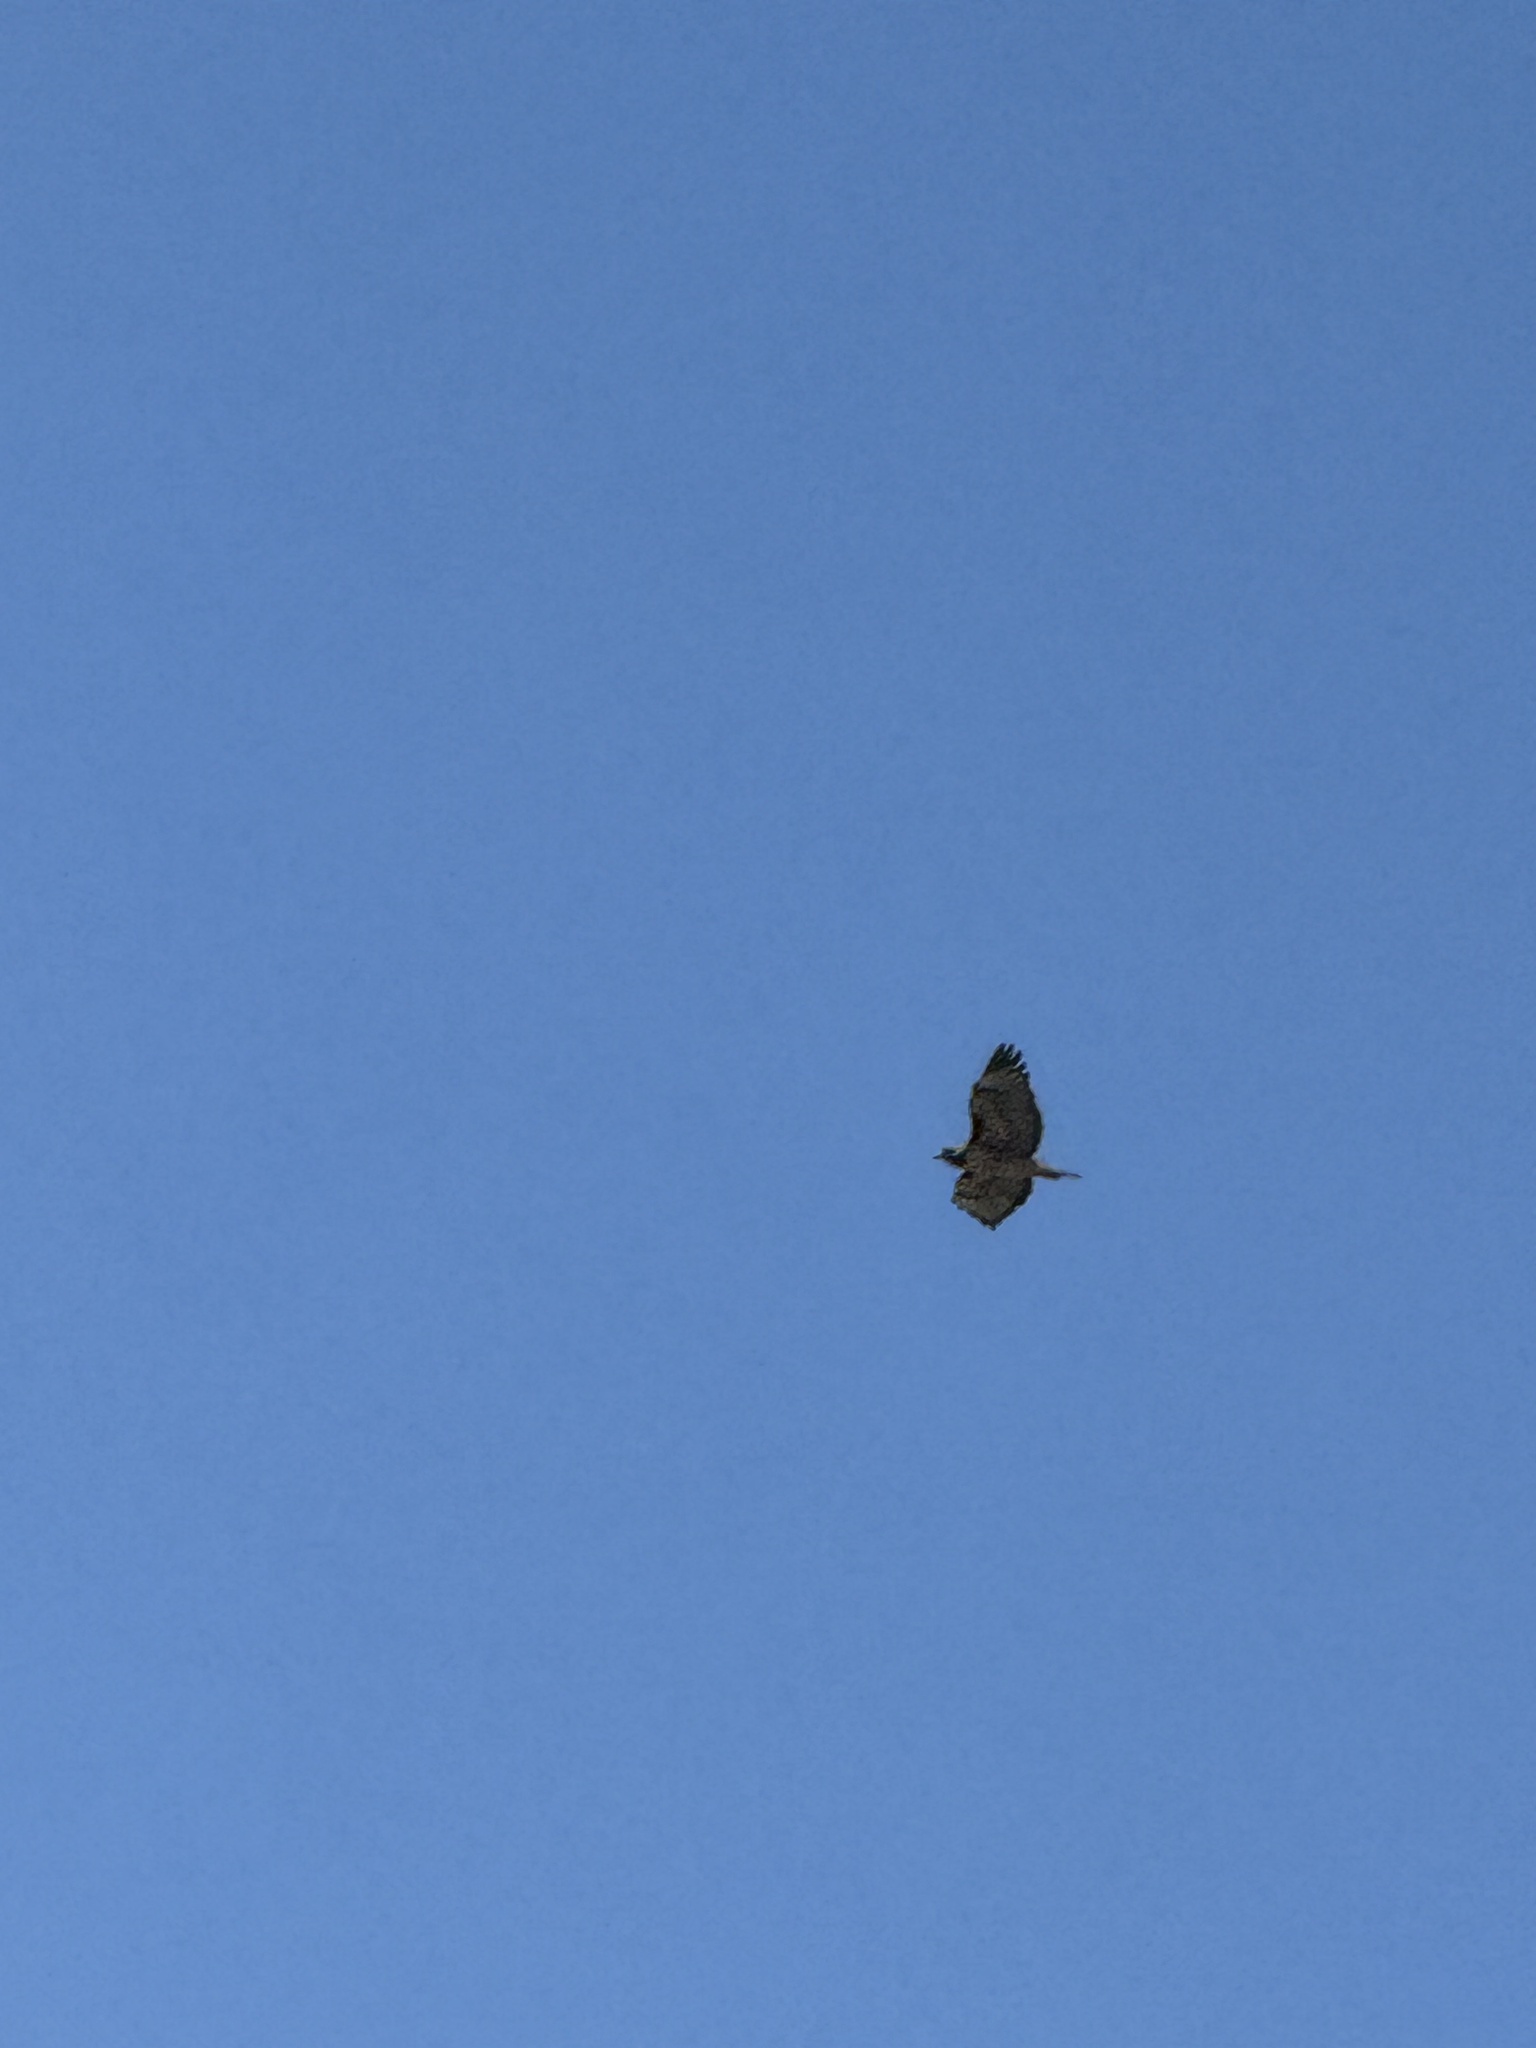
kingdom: Animalia
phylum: Chordata
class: Aves
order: Accipitriformes
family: Accipitridae
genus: Buteo
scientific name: Buteo jamaicensis
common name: Red-tailed hawk
